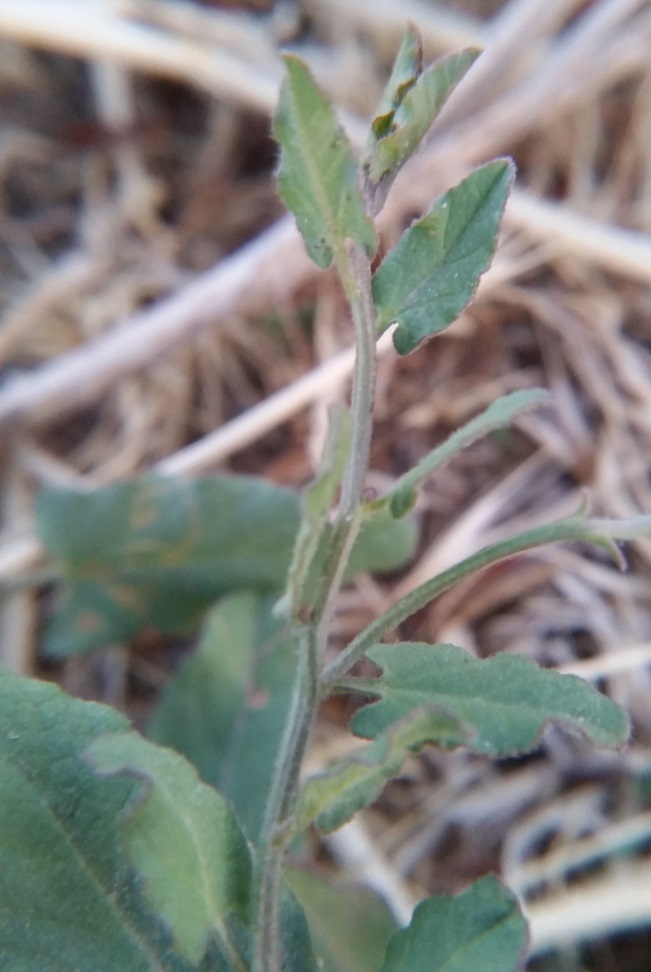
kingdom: Plantae
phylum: Tracheophyta
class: Magnoliopsida
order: Solanales
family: Convolvulaceae
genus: Convolvulus
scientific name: Convolvulus arvensis
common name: Field bindweed
